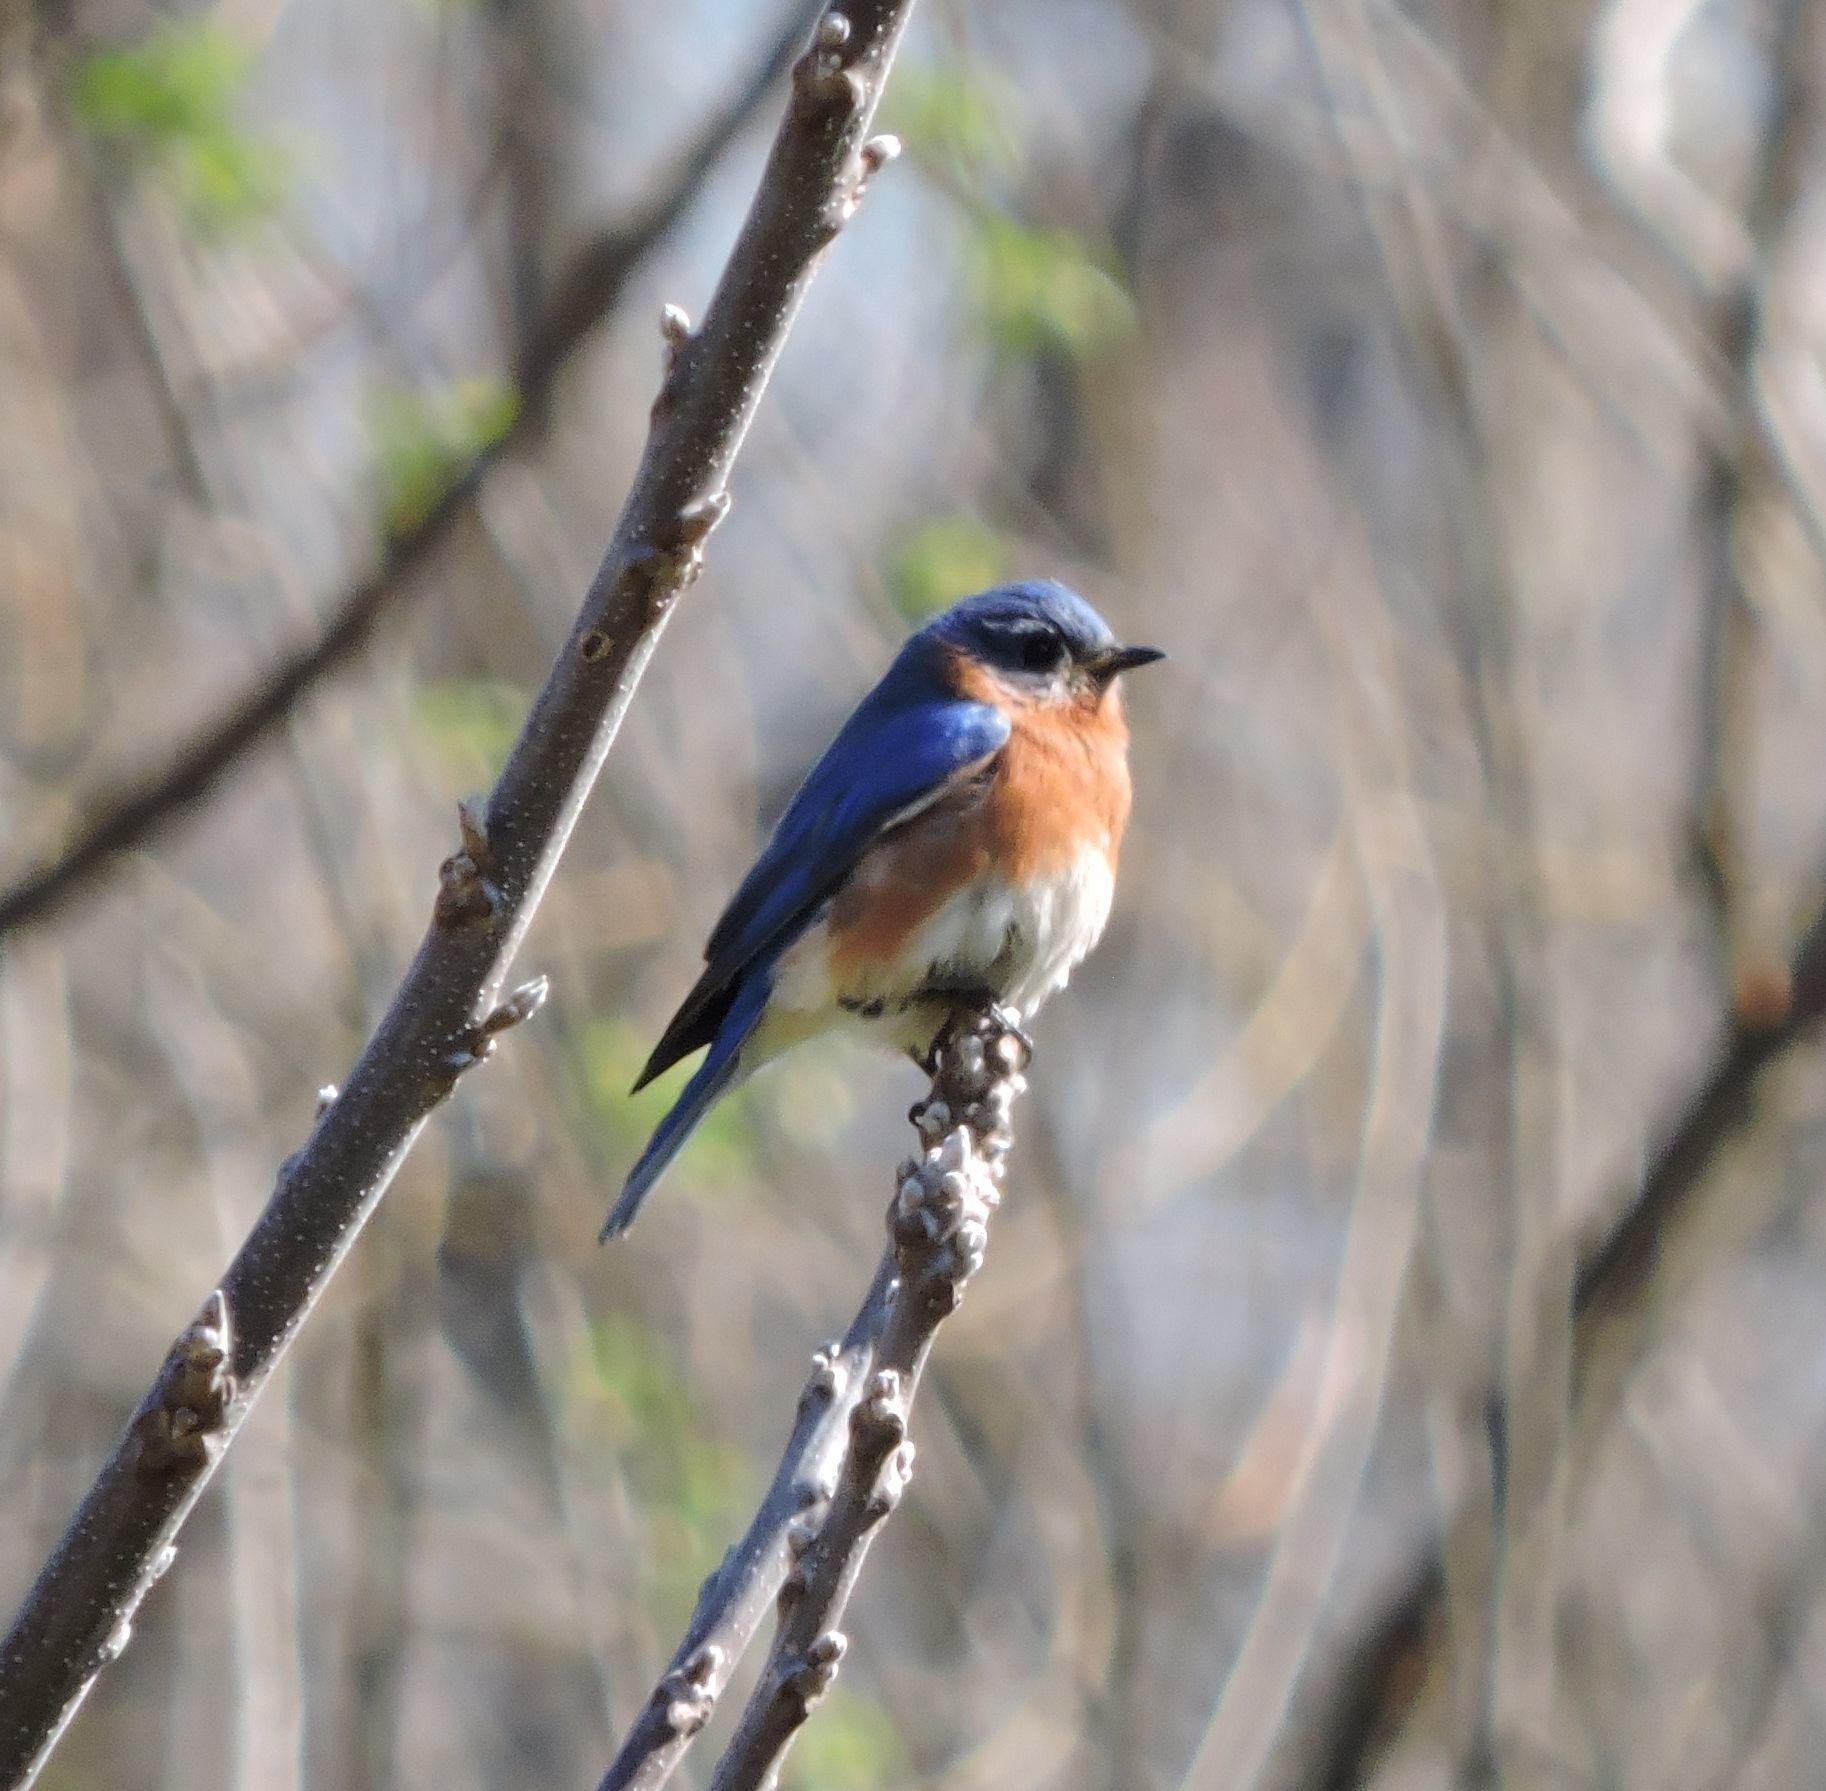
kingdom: Animalia
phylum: Chordata
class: Aves
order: Passeriformes
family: Turdidae
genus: Sialia
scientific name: Sialia sialis
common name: Eastern bluebird
